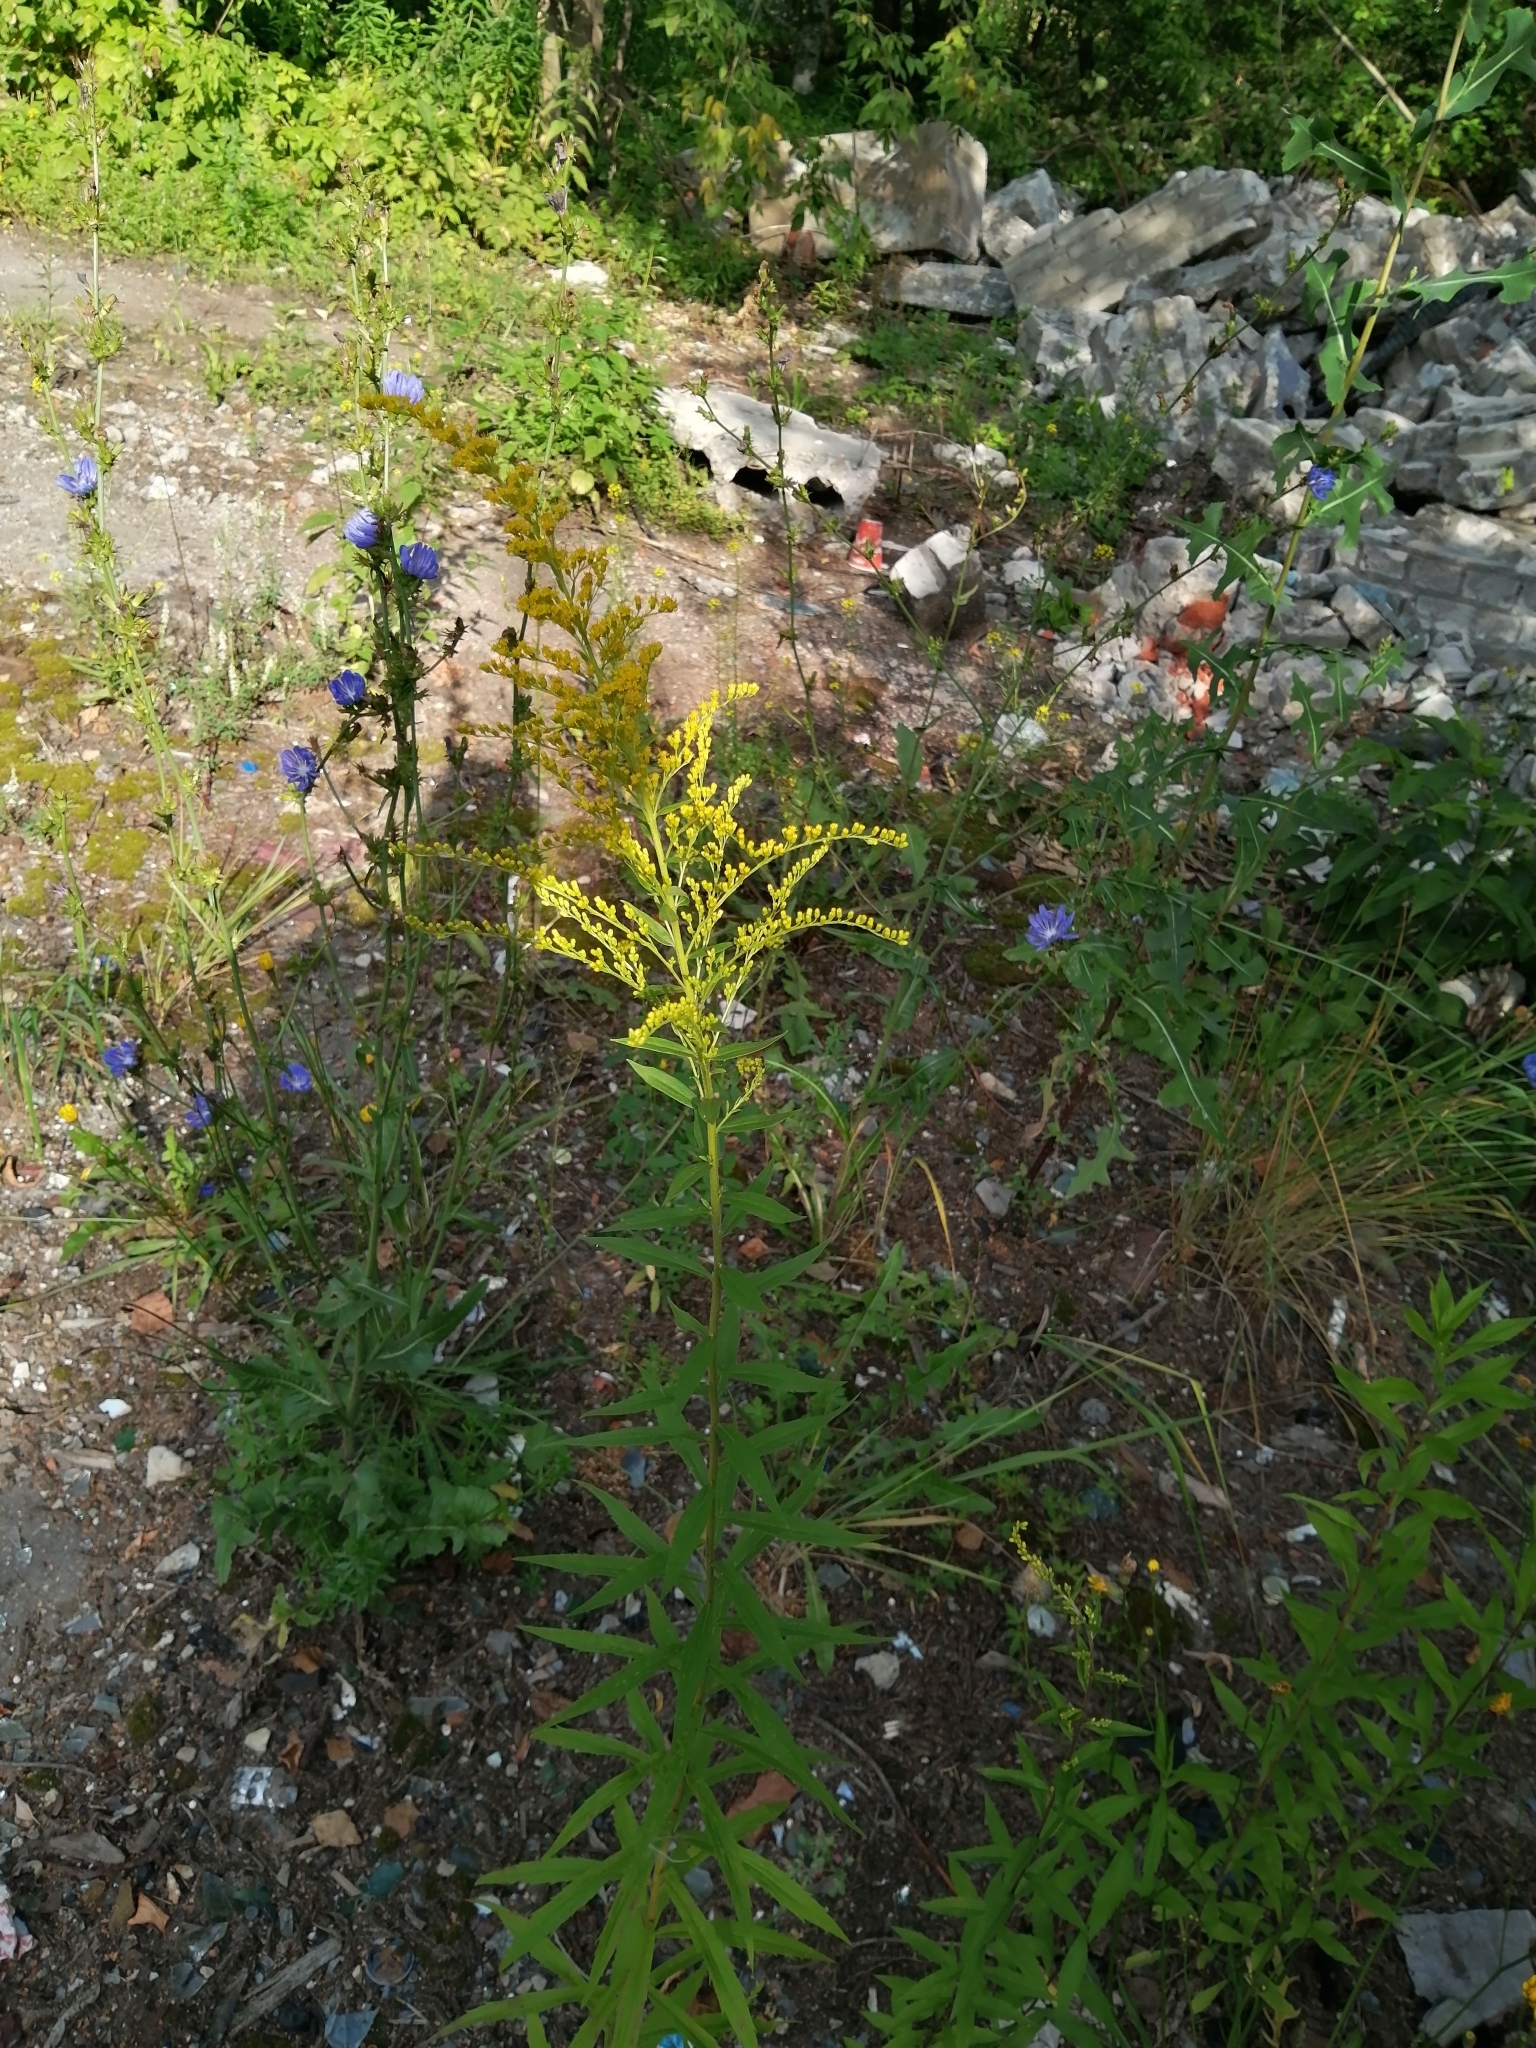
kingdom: Plantae
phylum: Tracheophyta
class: Magnoliopsida
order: Asterales
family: Asteraceae
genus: Solidago
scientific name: Solidago canadensis
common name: Canada goldenrod
